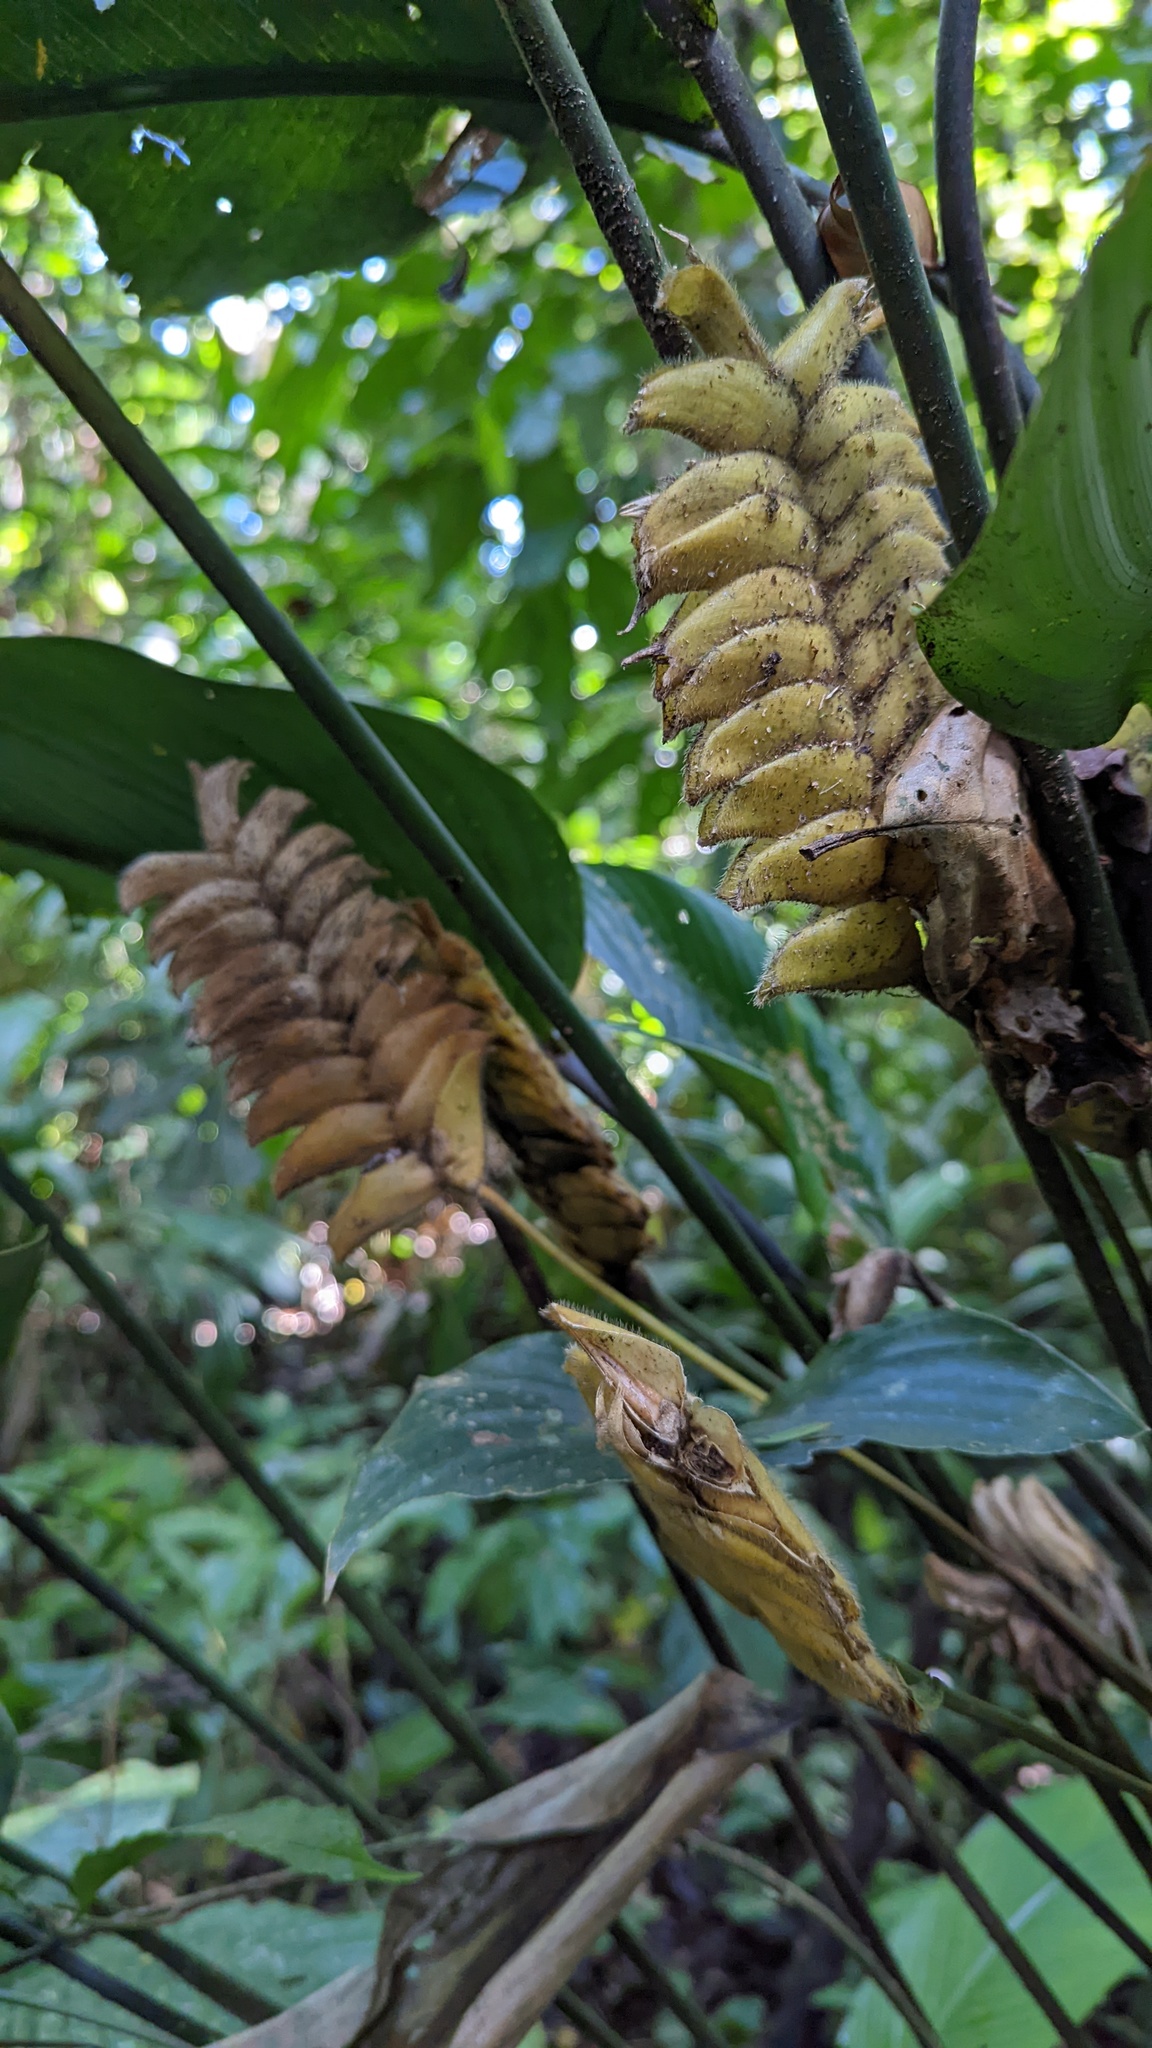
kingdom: Plantae
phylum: Tracheophyta
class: Liliopsida
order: Zingiberales
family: Marantaceae
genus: Calathea
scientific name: Calathea crotalifera
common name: Rattlesnake plant
